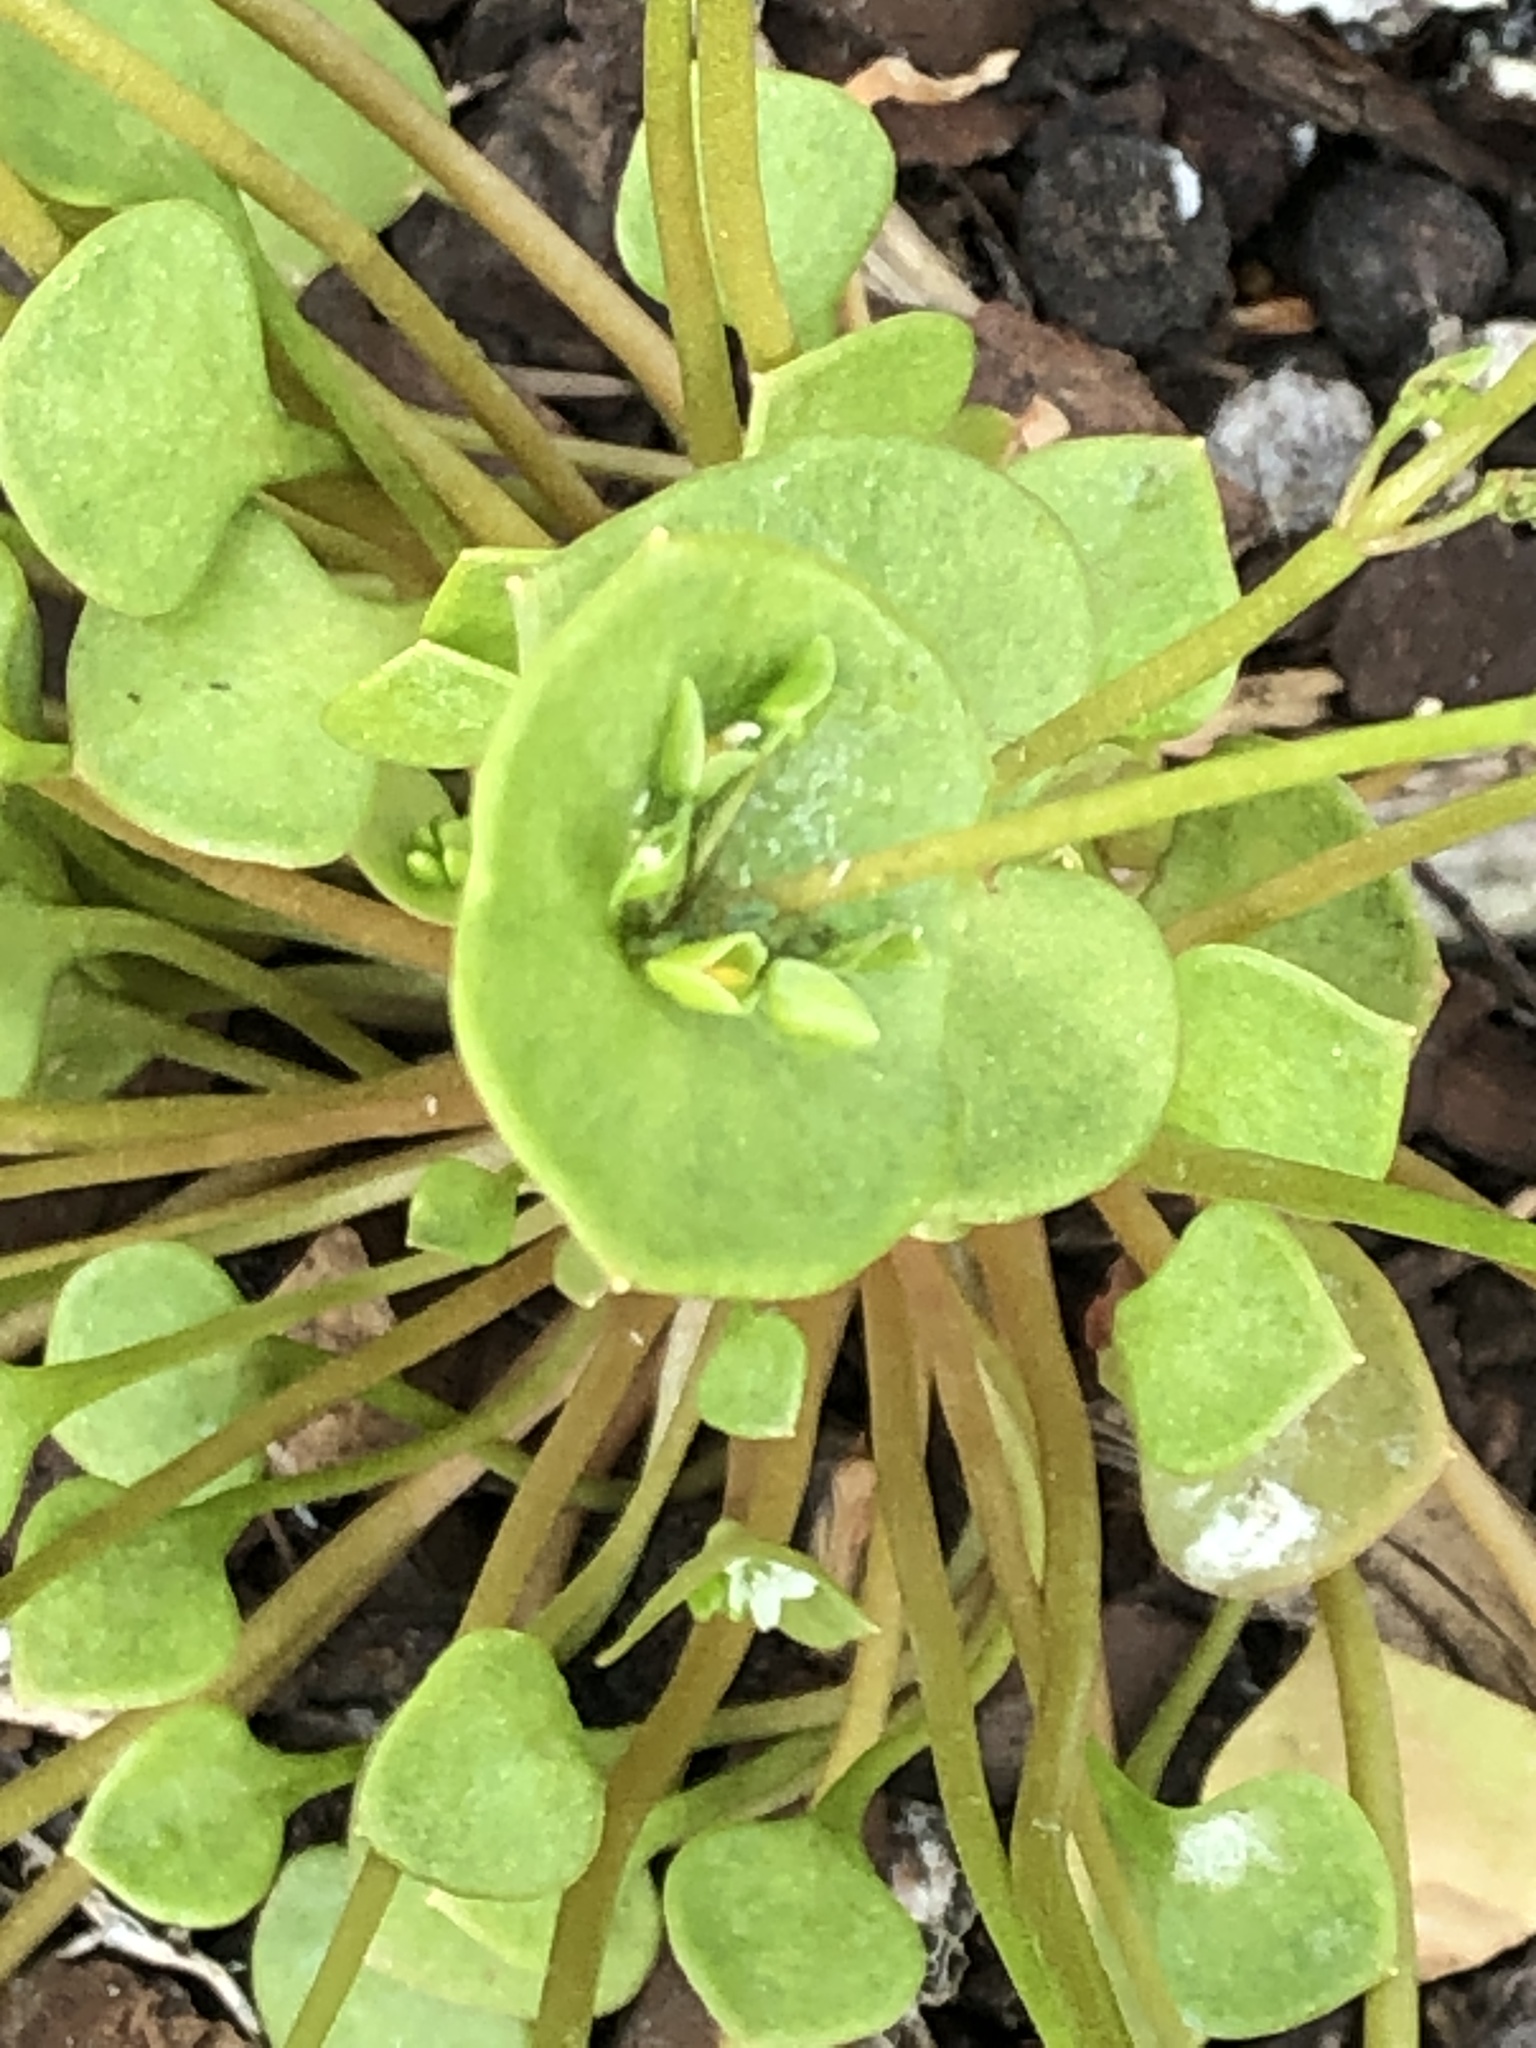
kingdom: Plantae
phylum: Tracheophyta
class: Magnoliopsida
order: Caryophyllales
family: Montiaceae
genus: Claytonia
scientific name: Claytonia perfoliata
